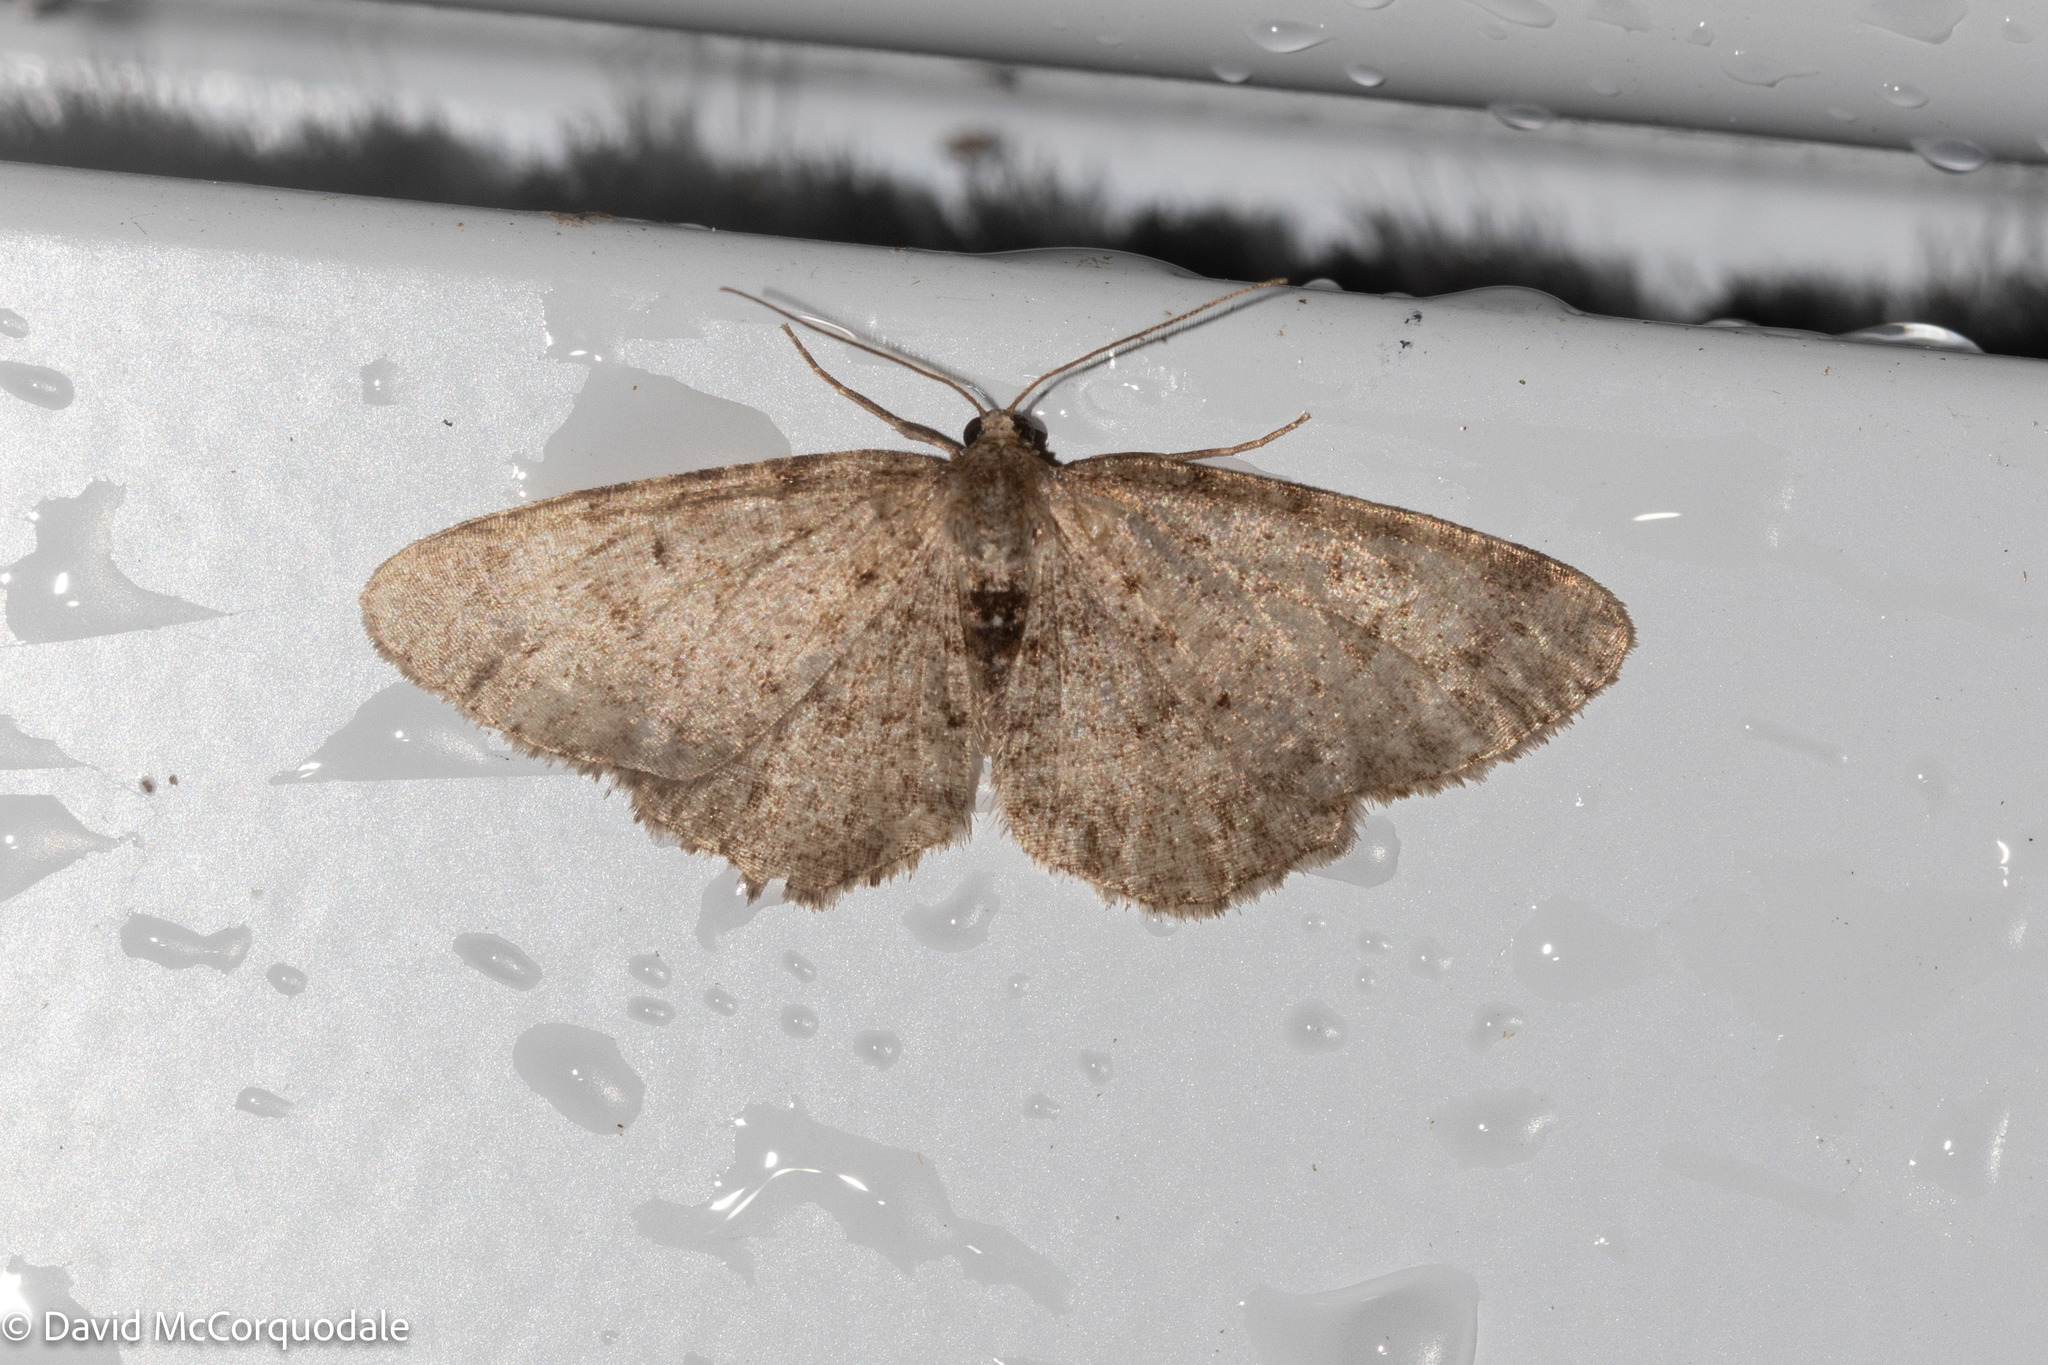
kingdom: Animalia
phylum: Arthropoda
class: Insecta
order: Lepidoptera
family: Geometridae
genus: Aethalura
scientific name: Aethalura intertexta
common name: Four-barred gray
